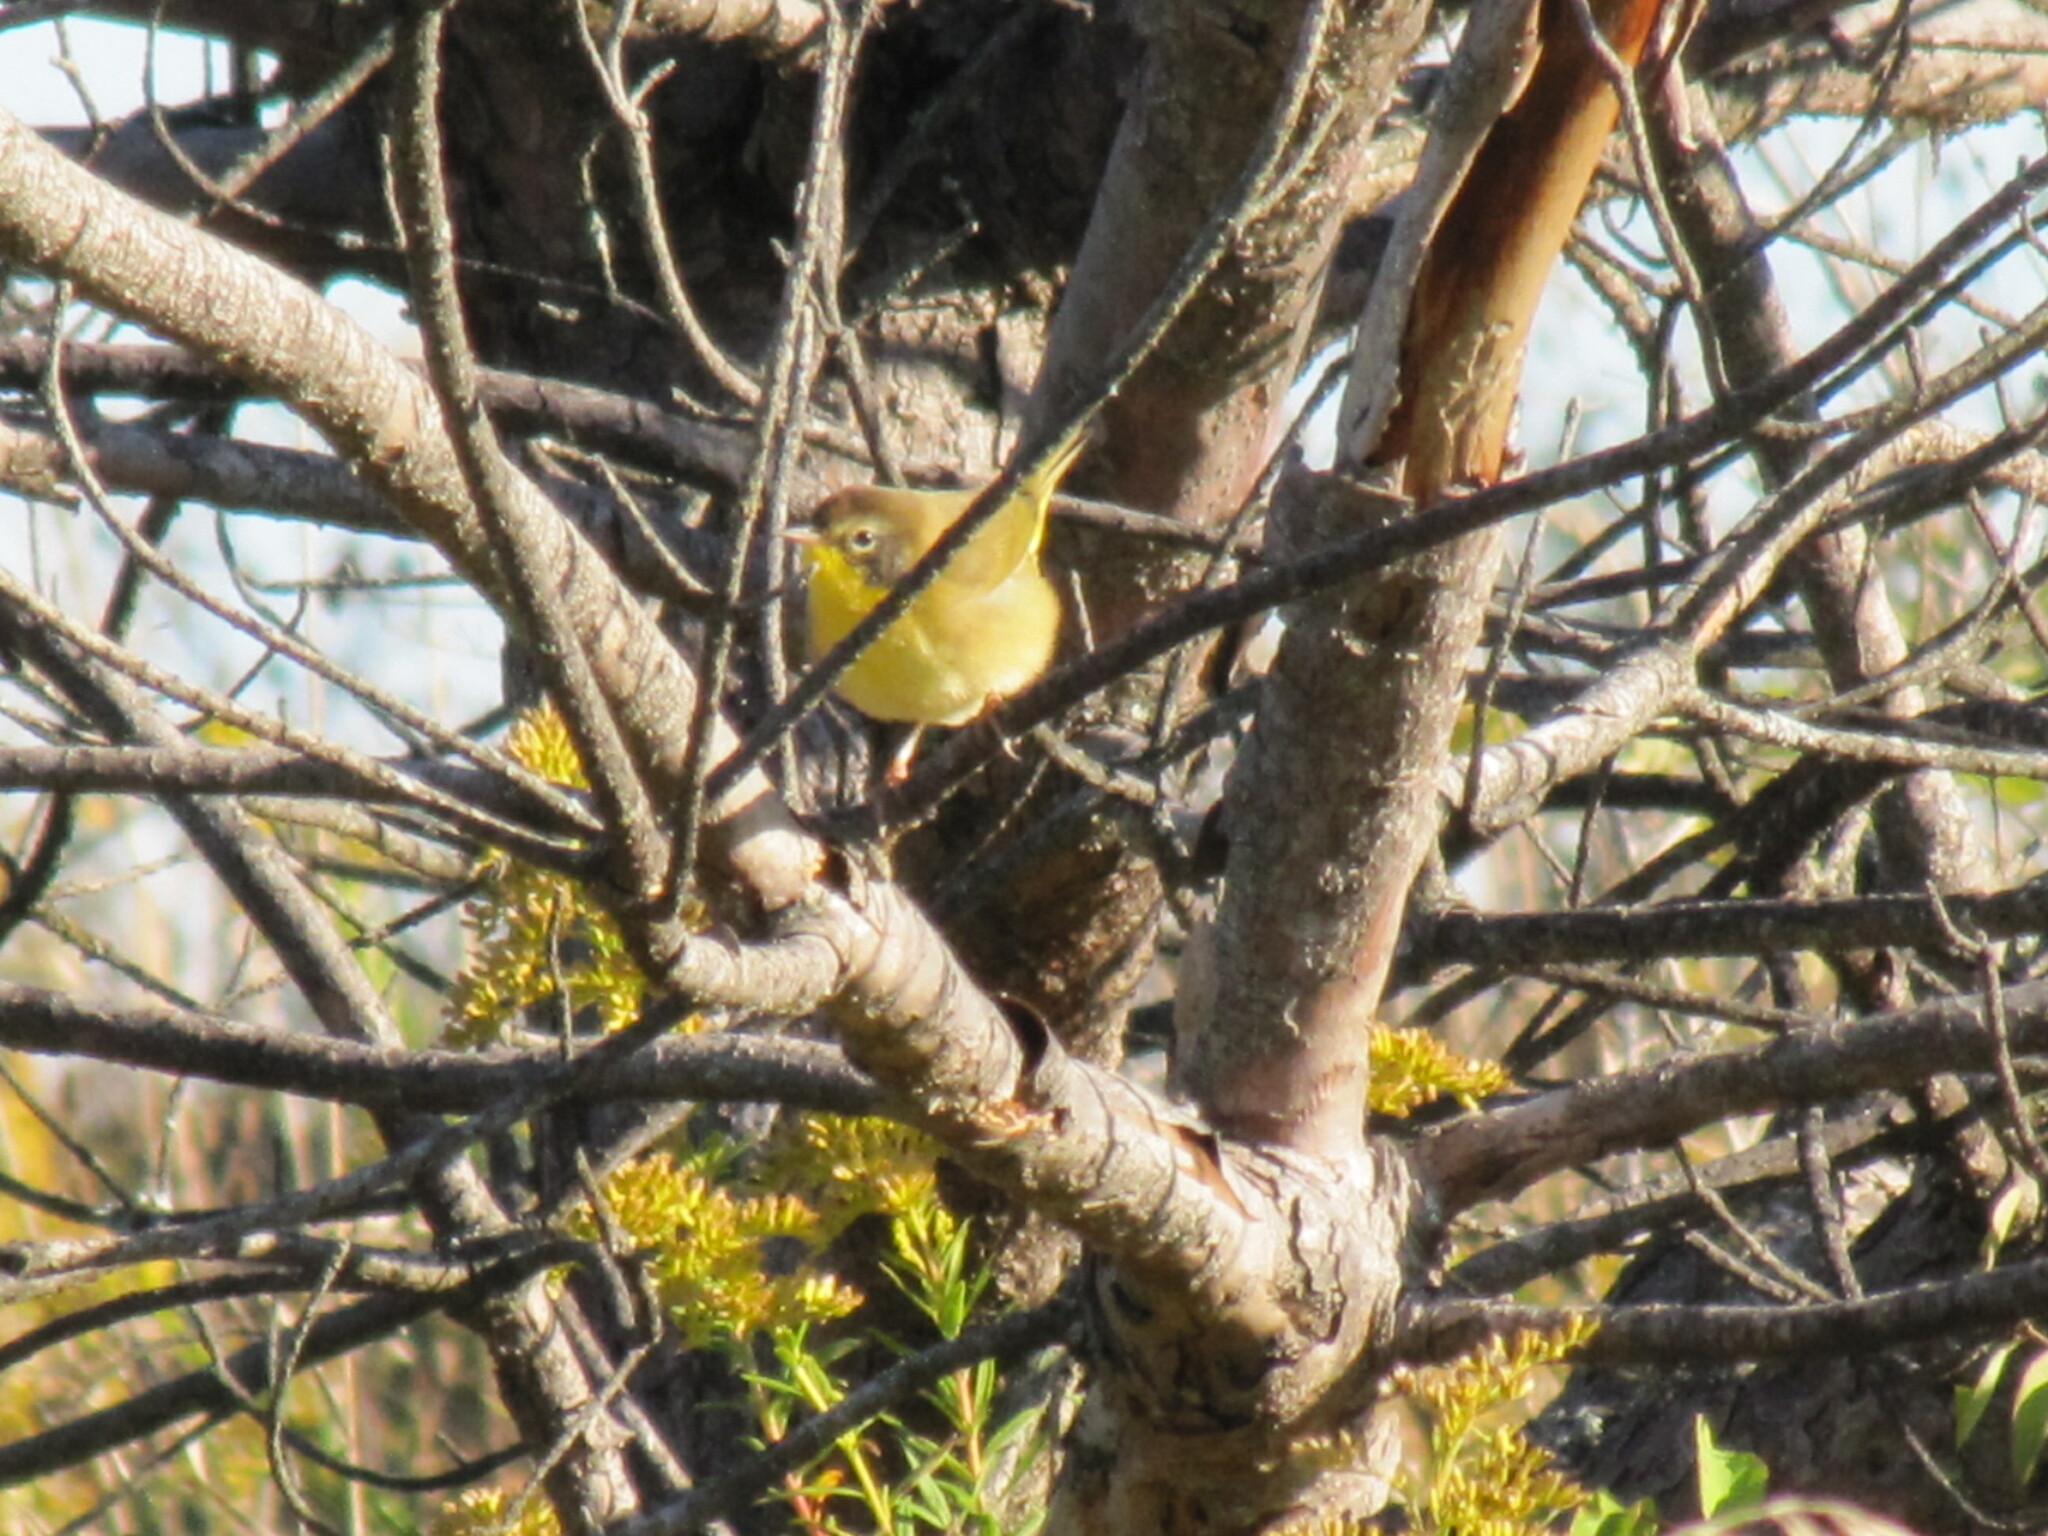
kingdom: Animalia
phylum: Chordata
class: Aves
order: Passeriformes
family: Parulidae
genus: Geothlypis
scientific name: Geothlypis trichas
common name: Common yellowthroat
